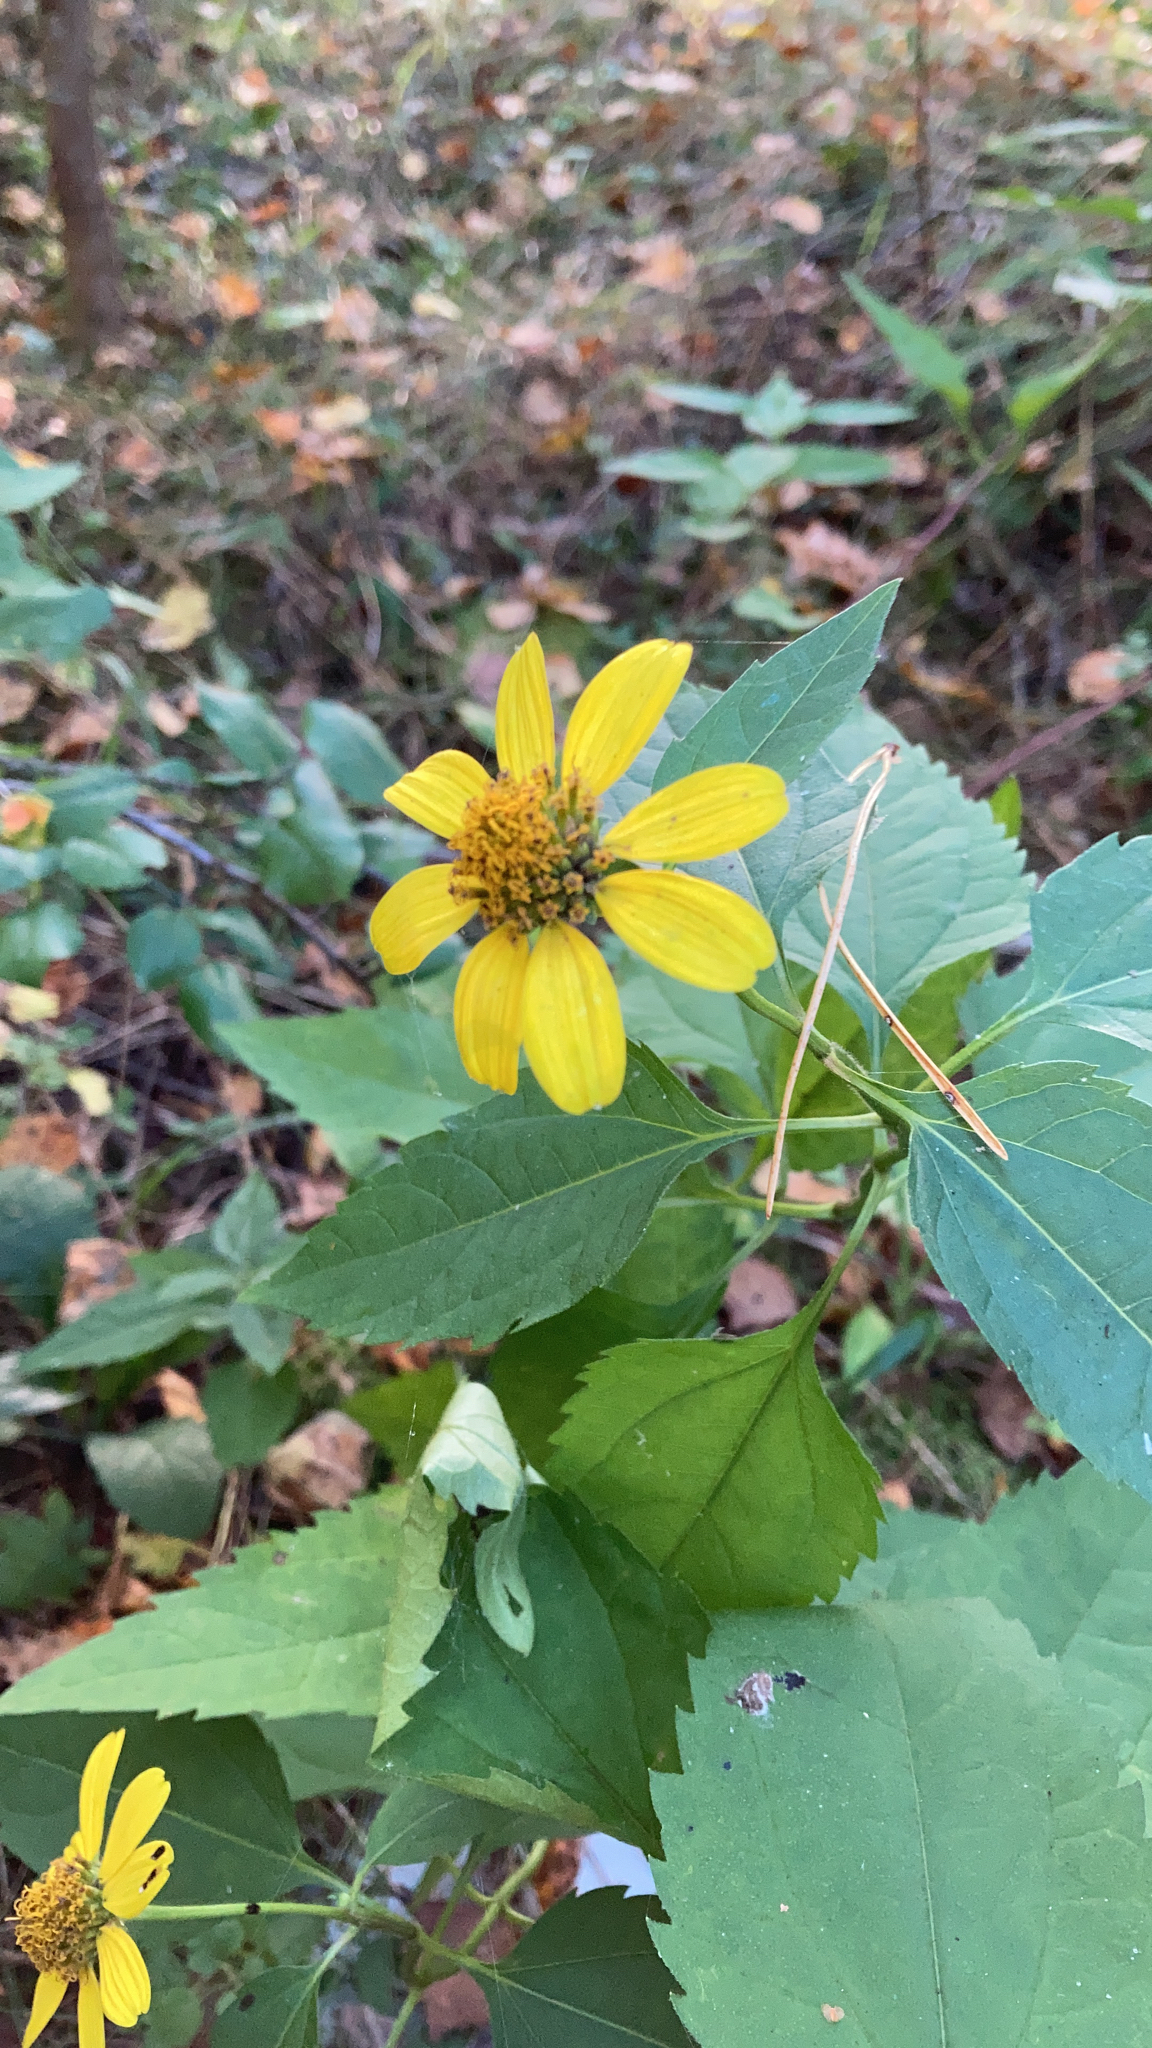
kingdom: Plantae
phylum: Tracheophyta
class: Magnoliopsida
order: Asterales
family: Asteraceae
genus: Heliopsis
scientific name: Heliopsis helianthoides
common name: False sunflower
